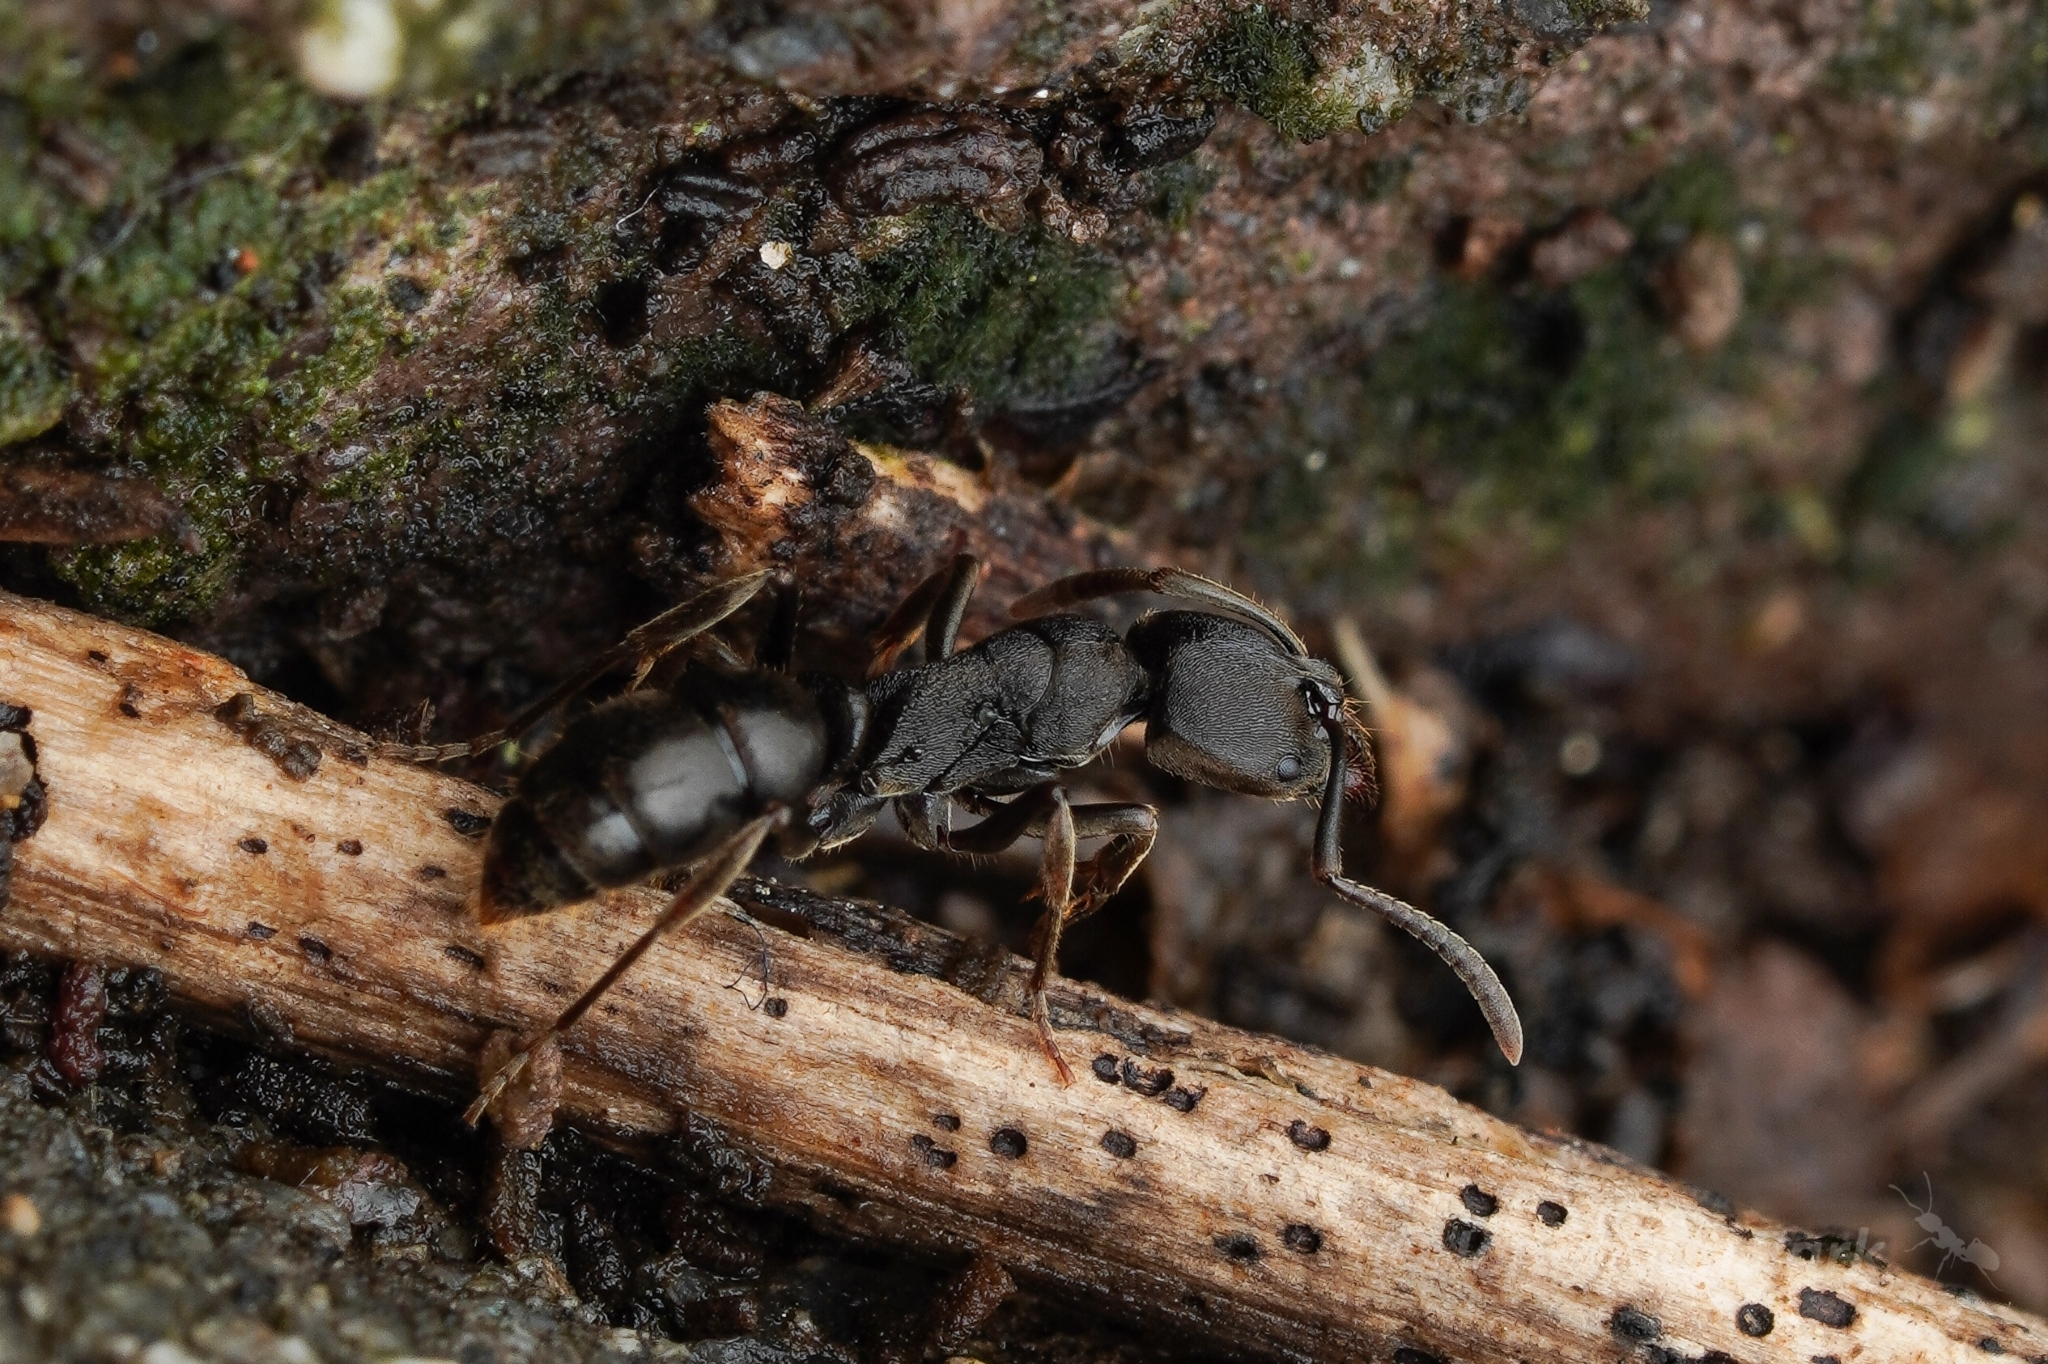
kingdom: Animalia
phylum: Arthropoda
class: Insecta
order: Hymenoptera
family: Formicidae
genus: Ectomomyrmex
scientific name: Ectomomyrmex javanus
